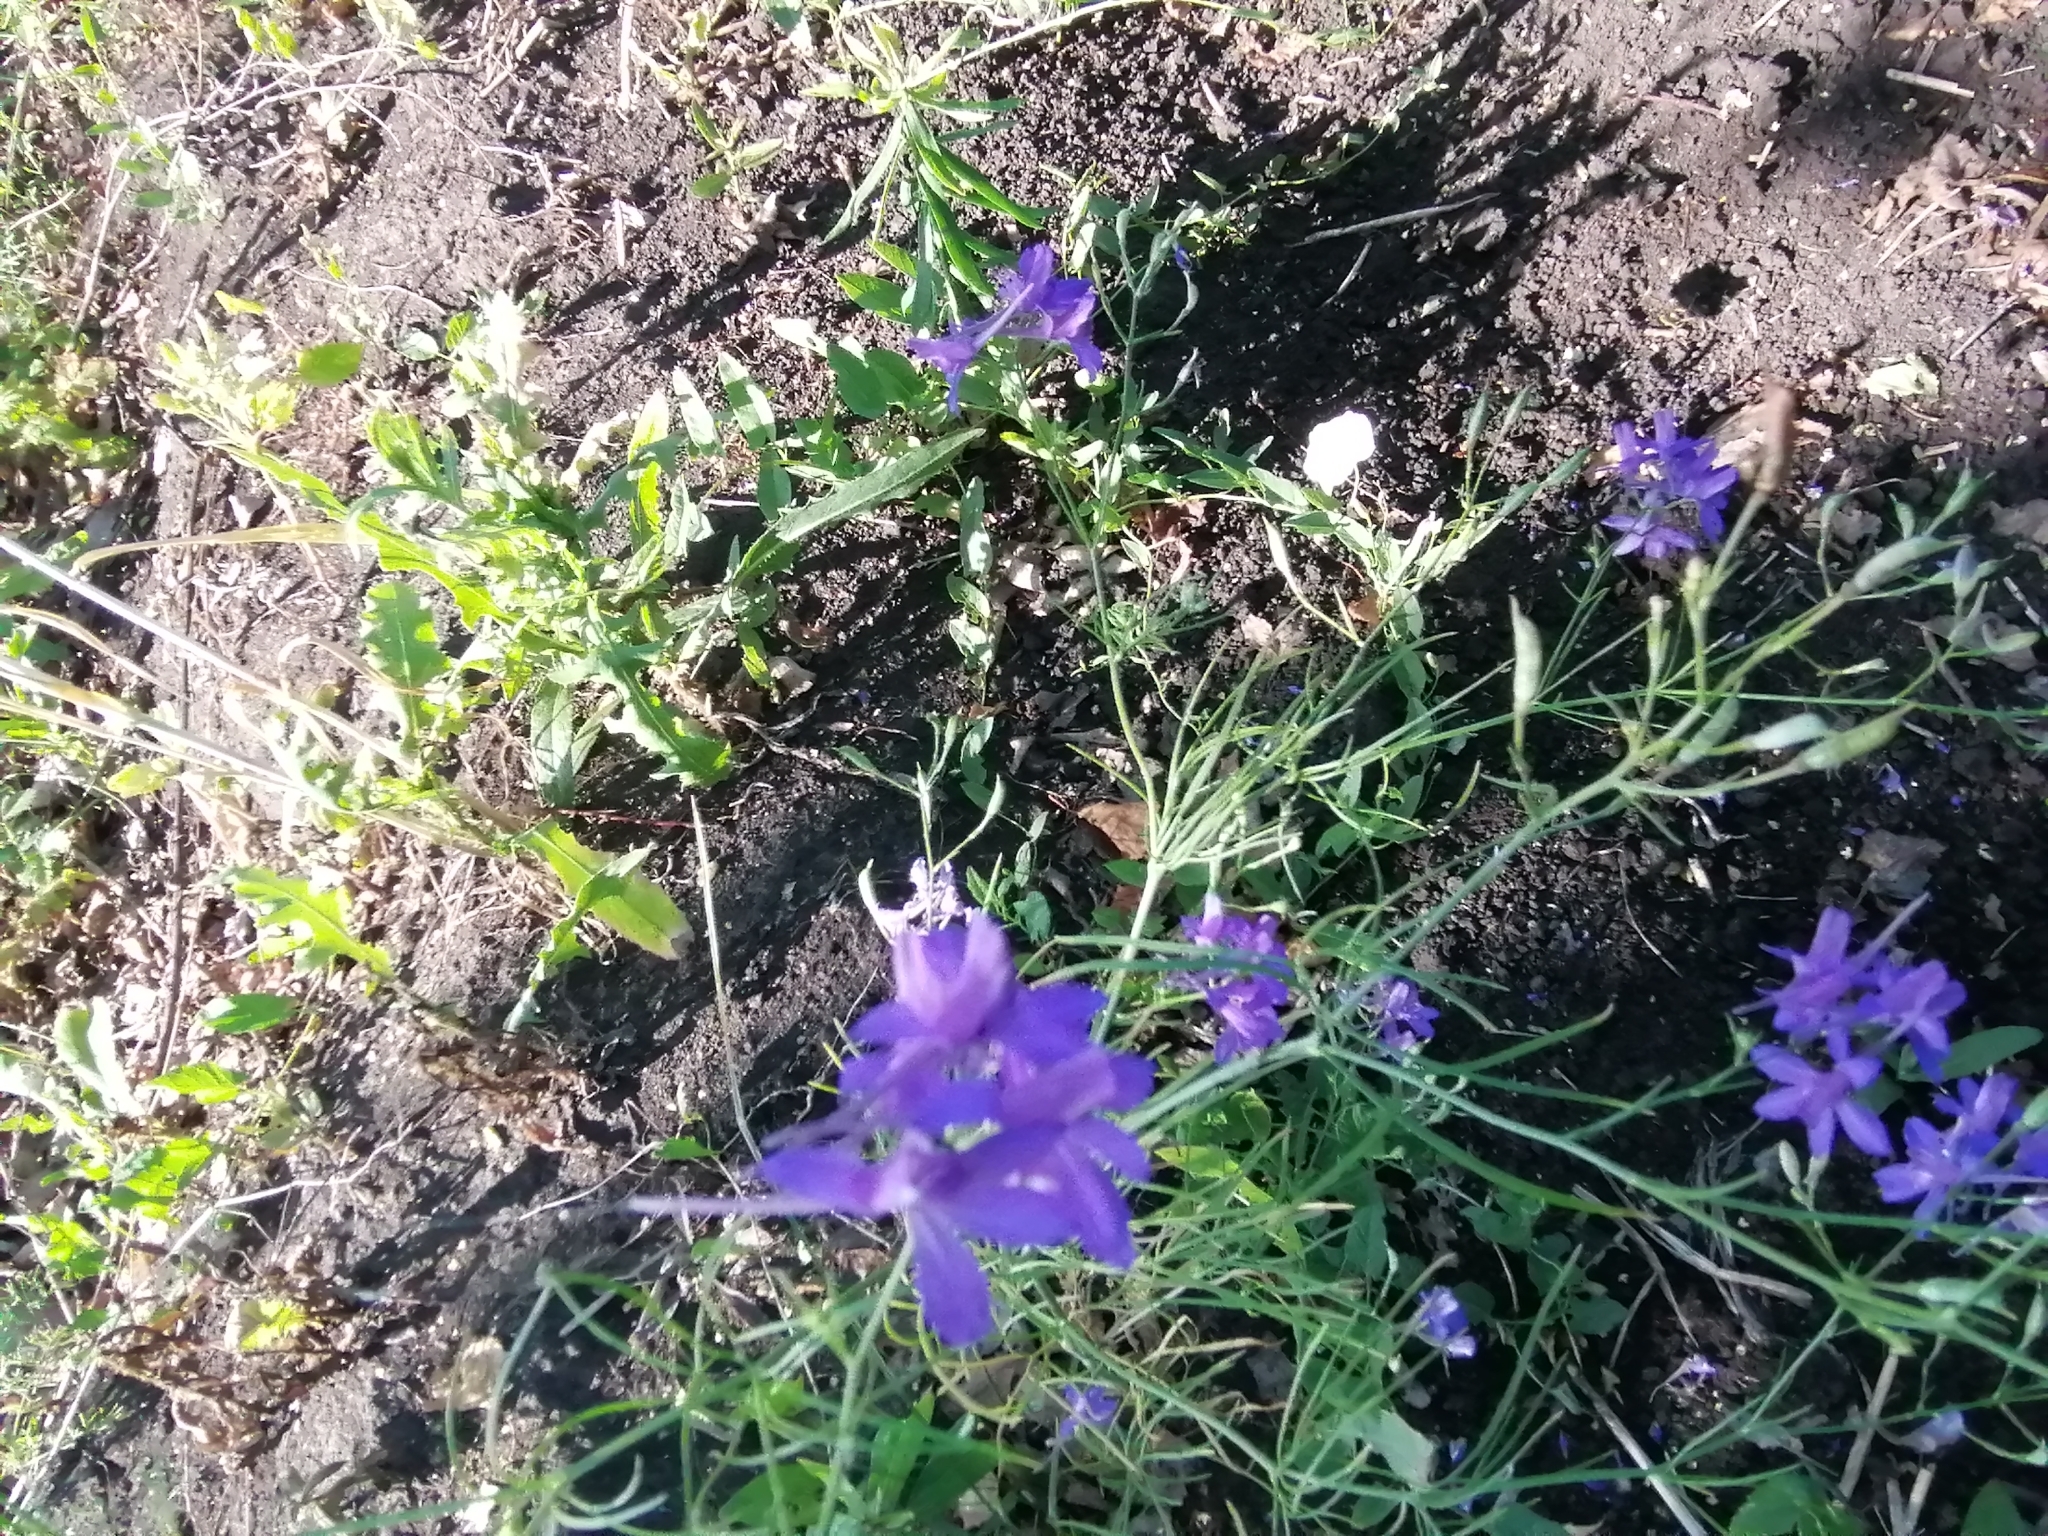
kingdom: Plantae
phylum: Tracheophyta
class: Magnoliopsida
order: Ranunculales
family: Ranunculaceae
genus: Delphinium
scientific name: Delphinium consolida
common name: Branching larkspur
